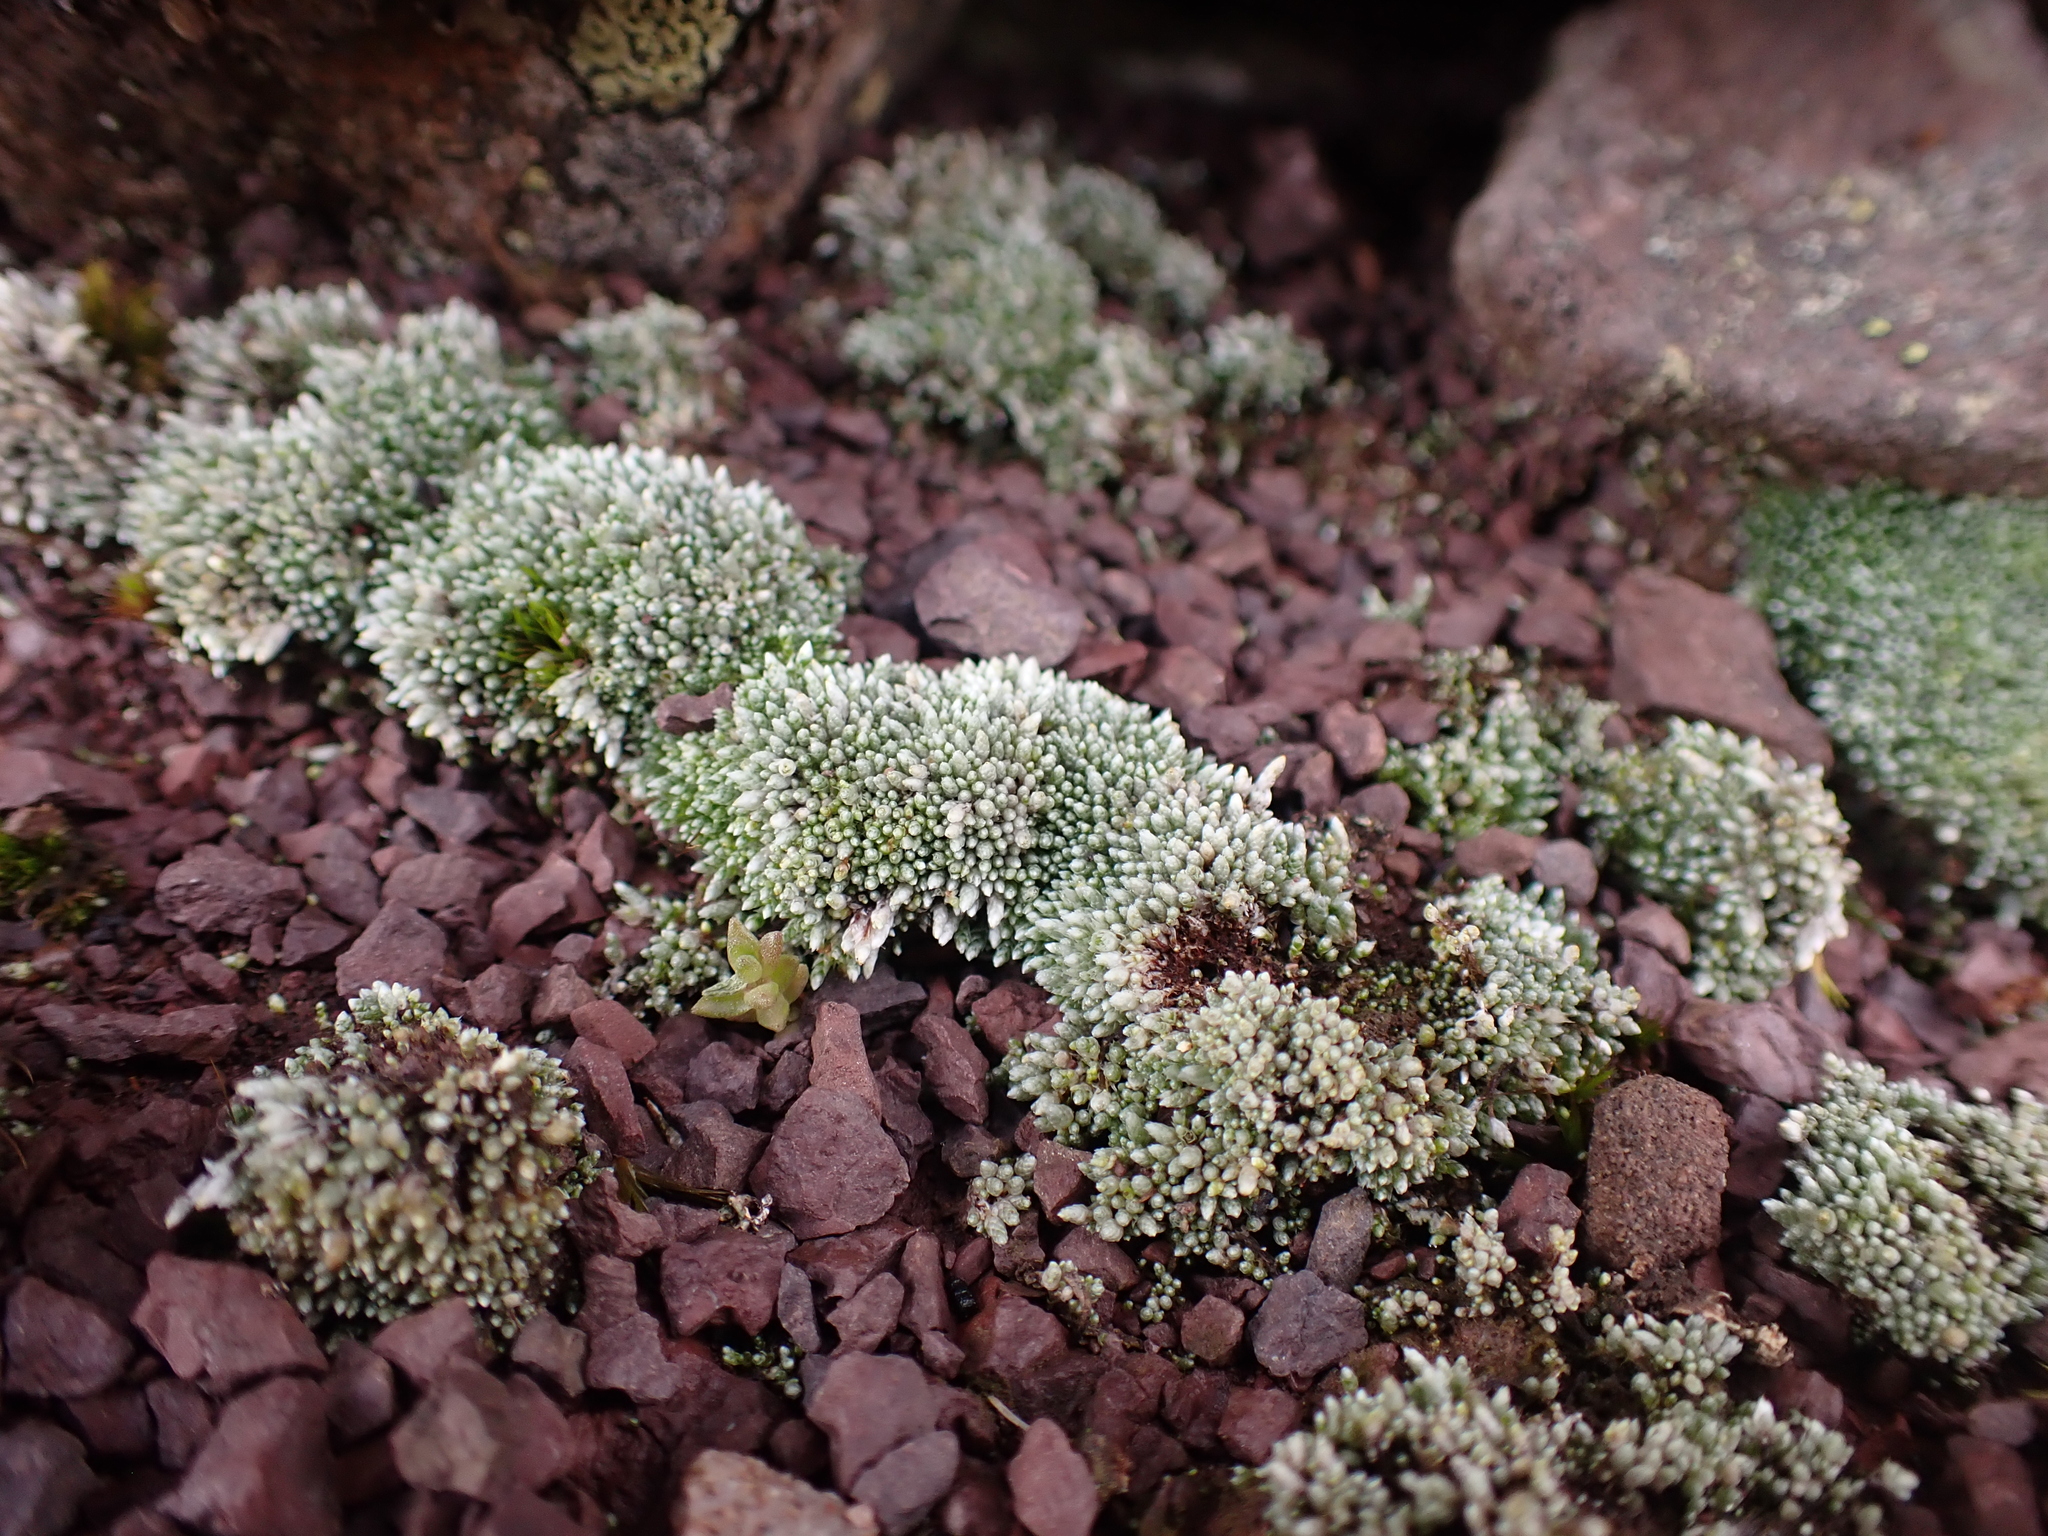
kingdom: Plantae
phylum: Bryophyta
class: Bryopsida
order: Bryales
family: Bryaceae
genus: Bryum
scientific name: Bryum argenteum
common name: Silver-moss
